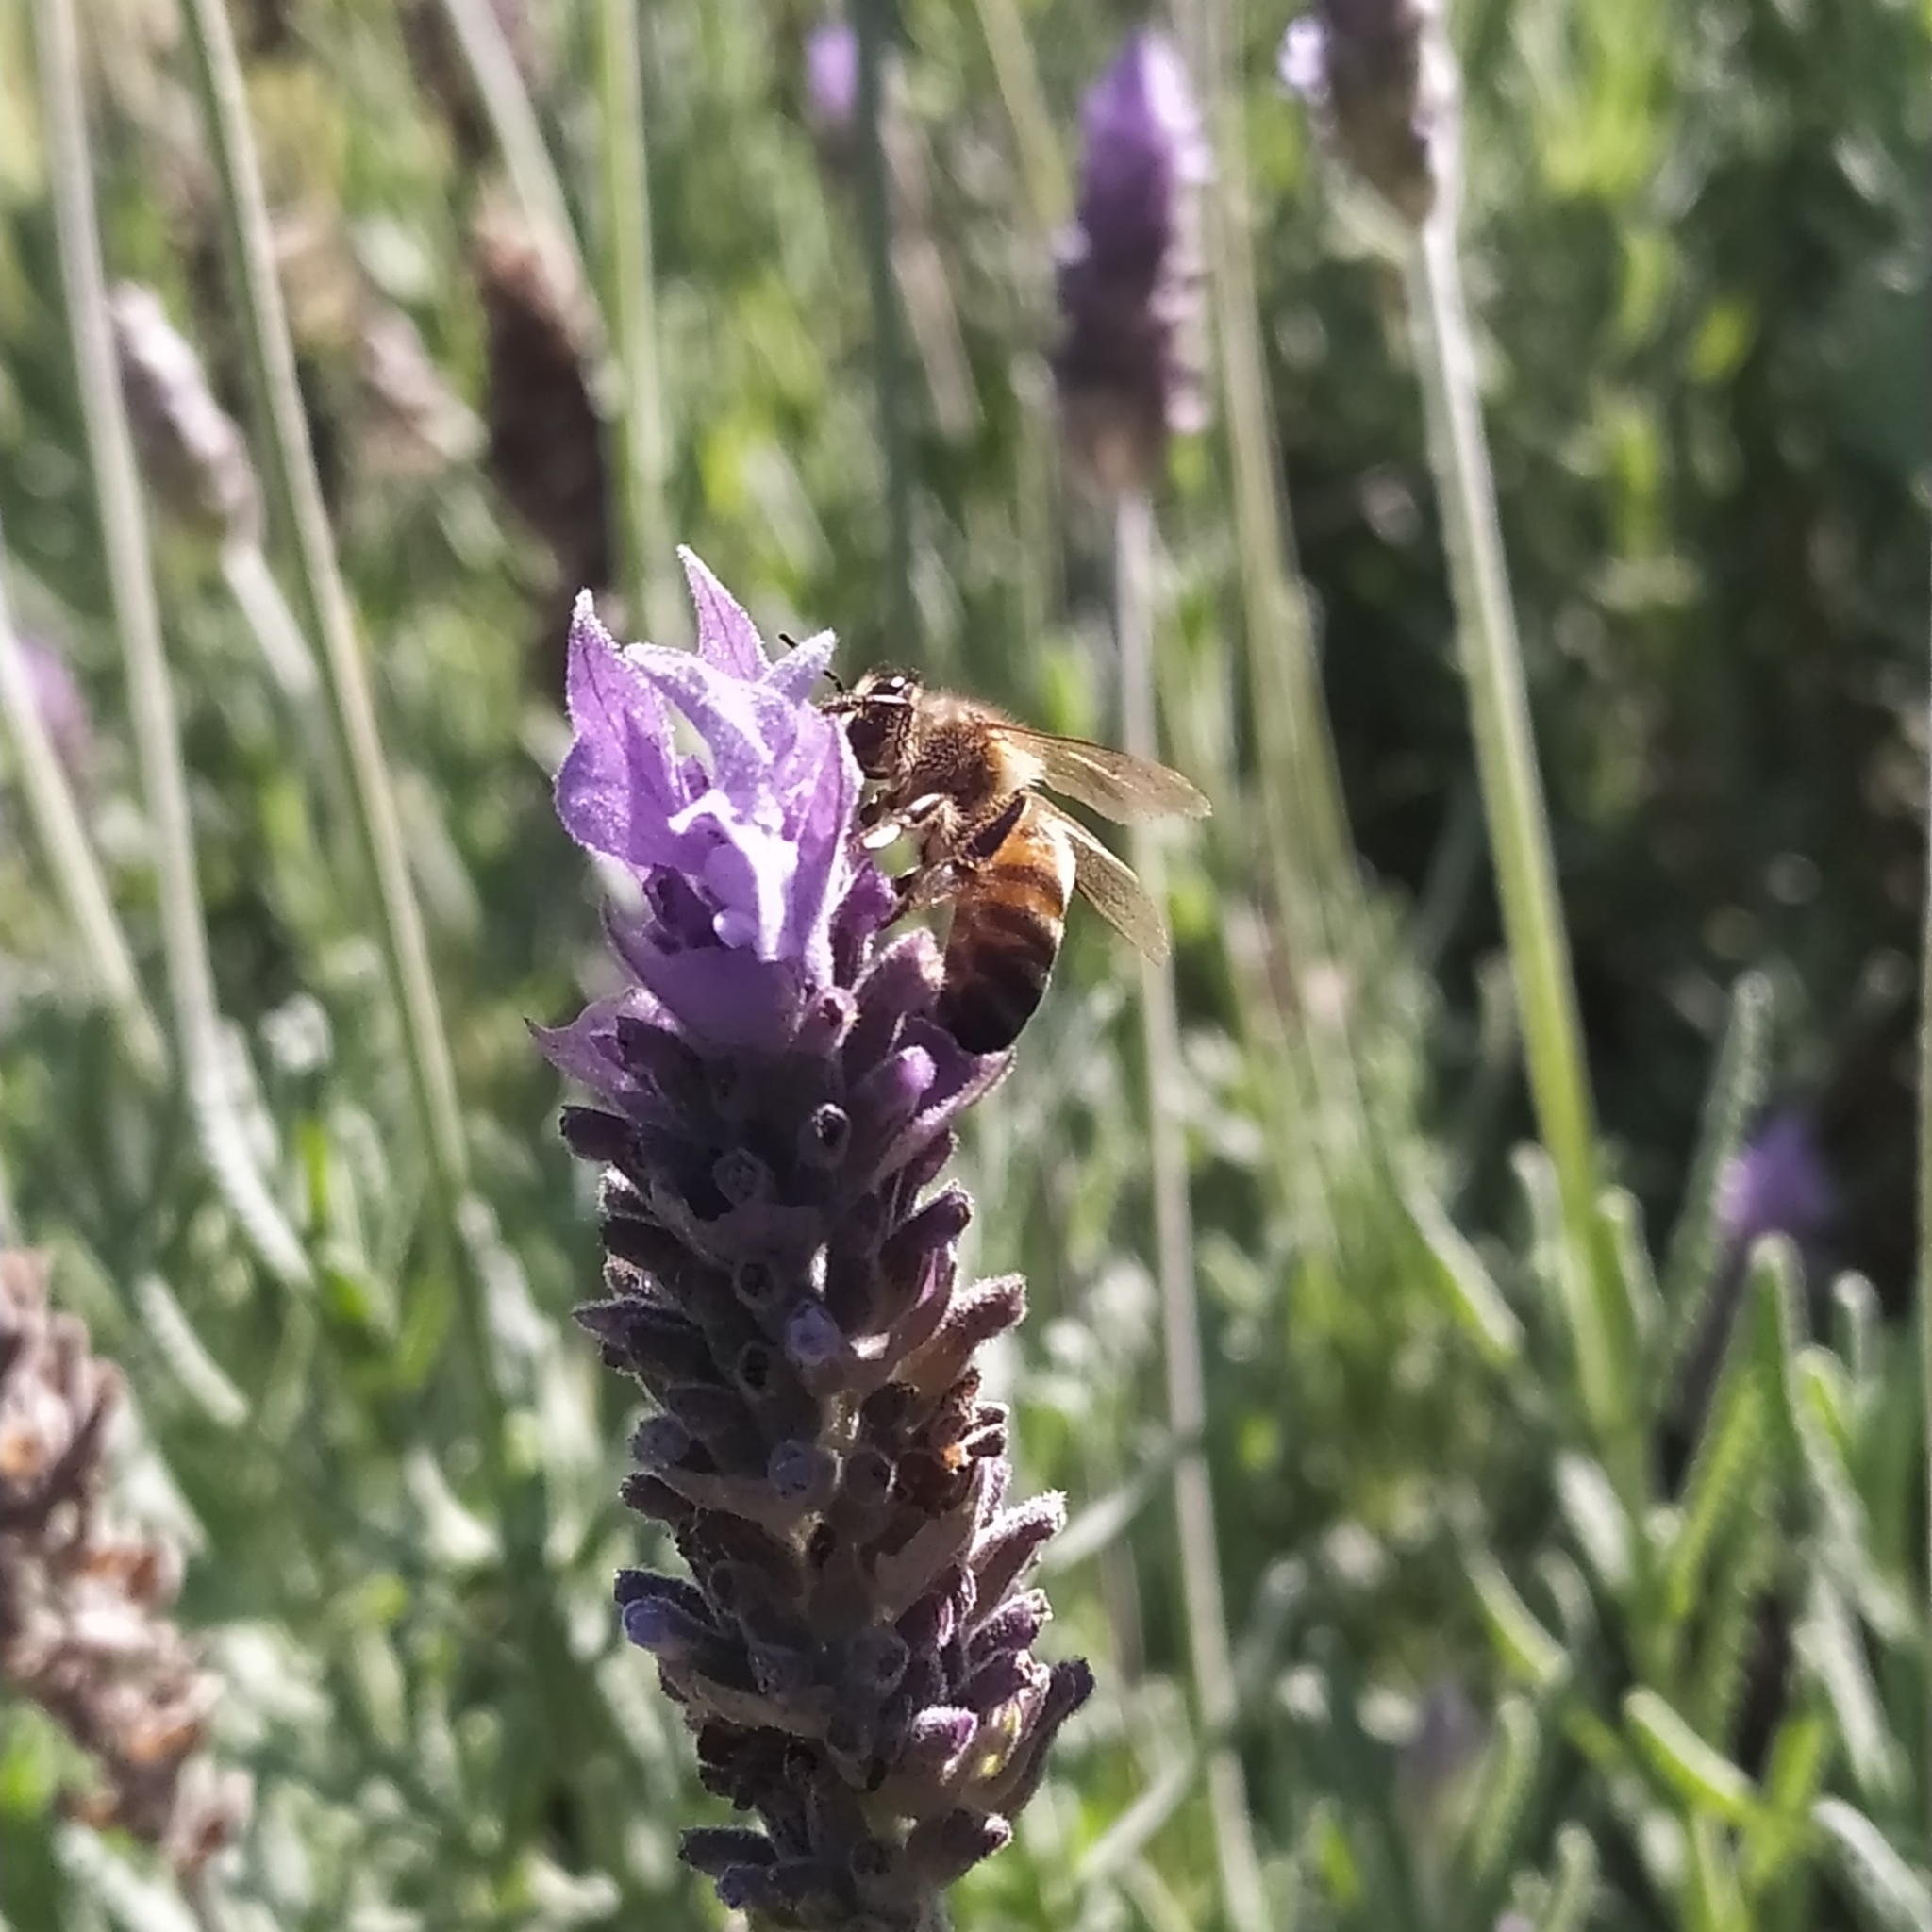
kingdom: Animalia
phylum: Arthropoda
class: Insecta
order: Hymenoptera
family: Apidae
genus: Apis
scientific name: Apis mellifera
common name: Honey bee
